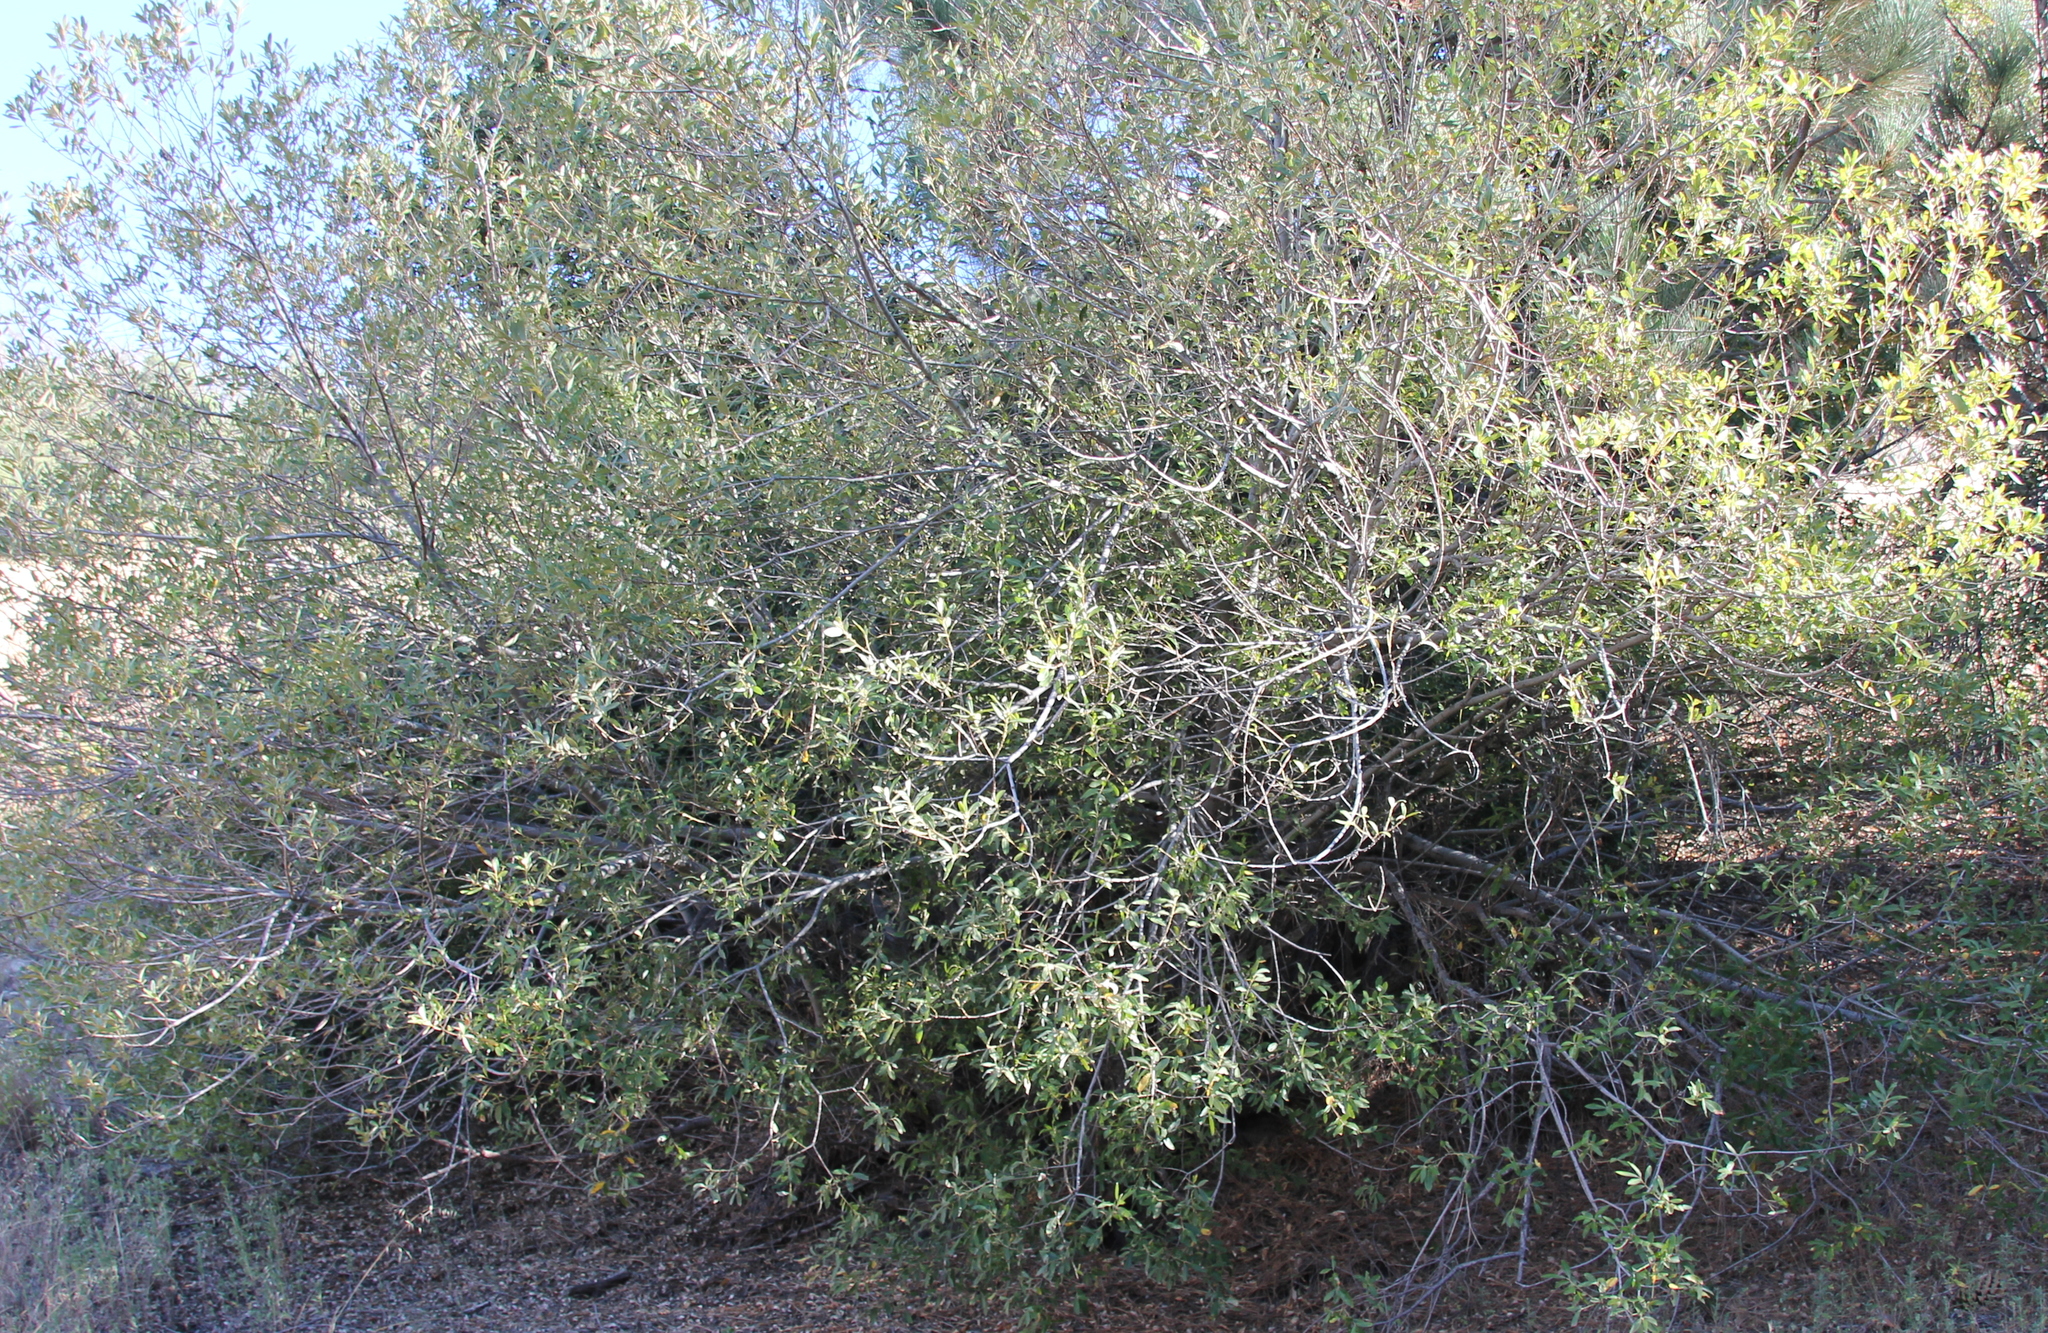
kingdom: Plantae
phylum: Tracheophyta
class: Magnoliopsida
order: Malpighiales
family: Salicaceae
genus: Salix
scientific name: Salix lasiolepis
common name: Arroyo willow
